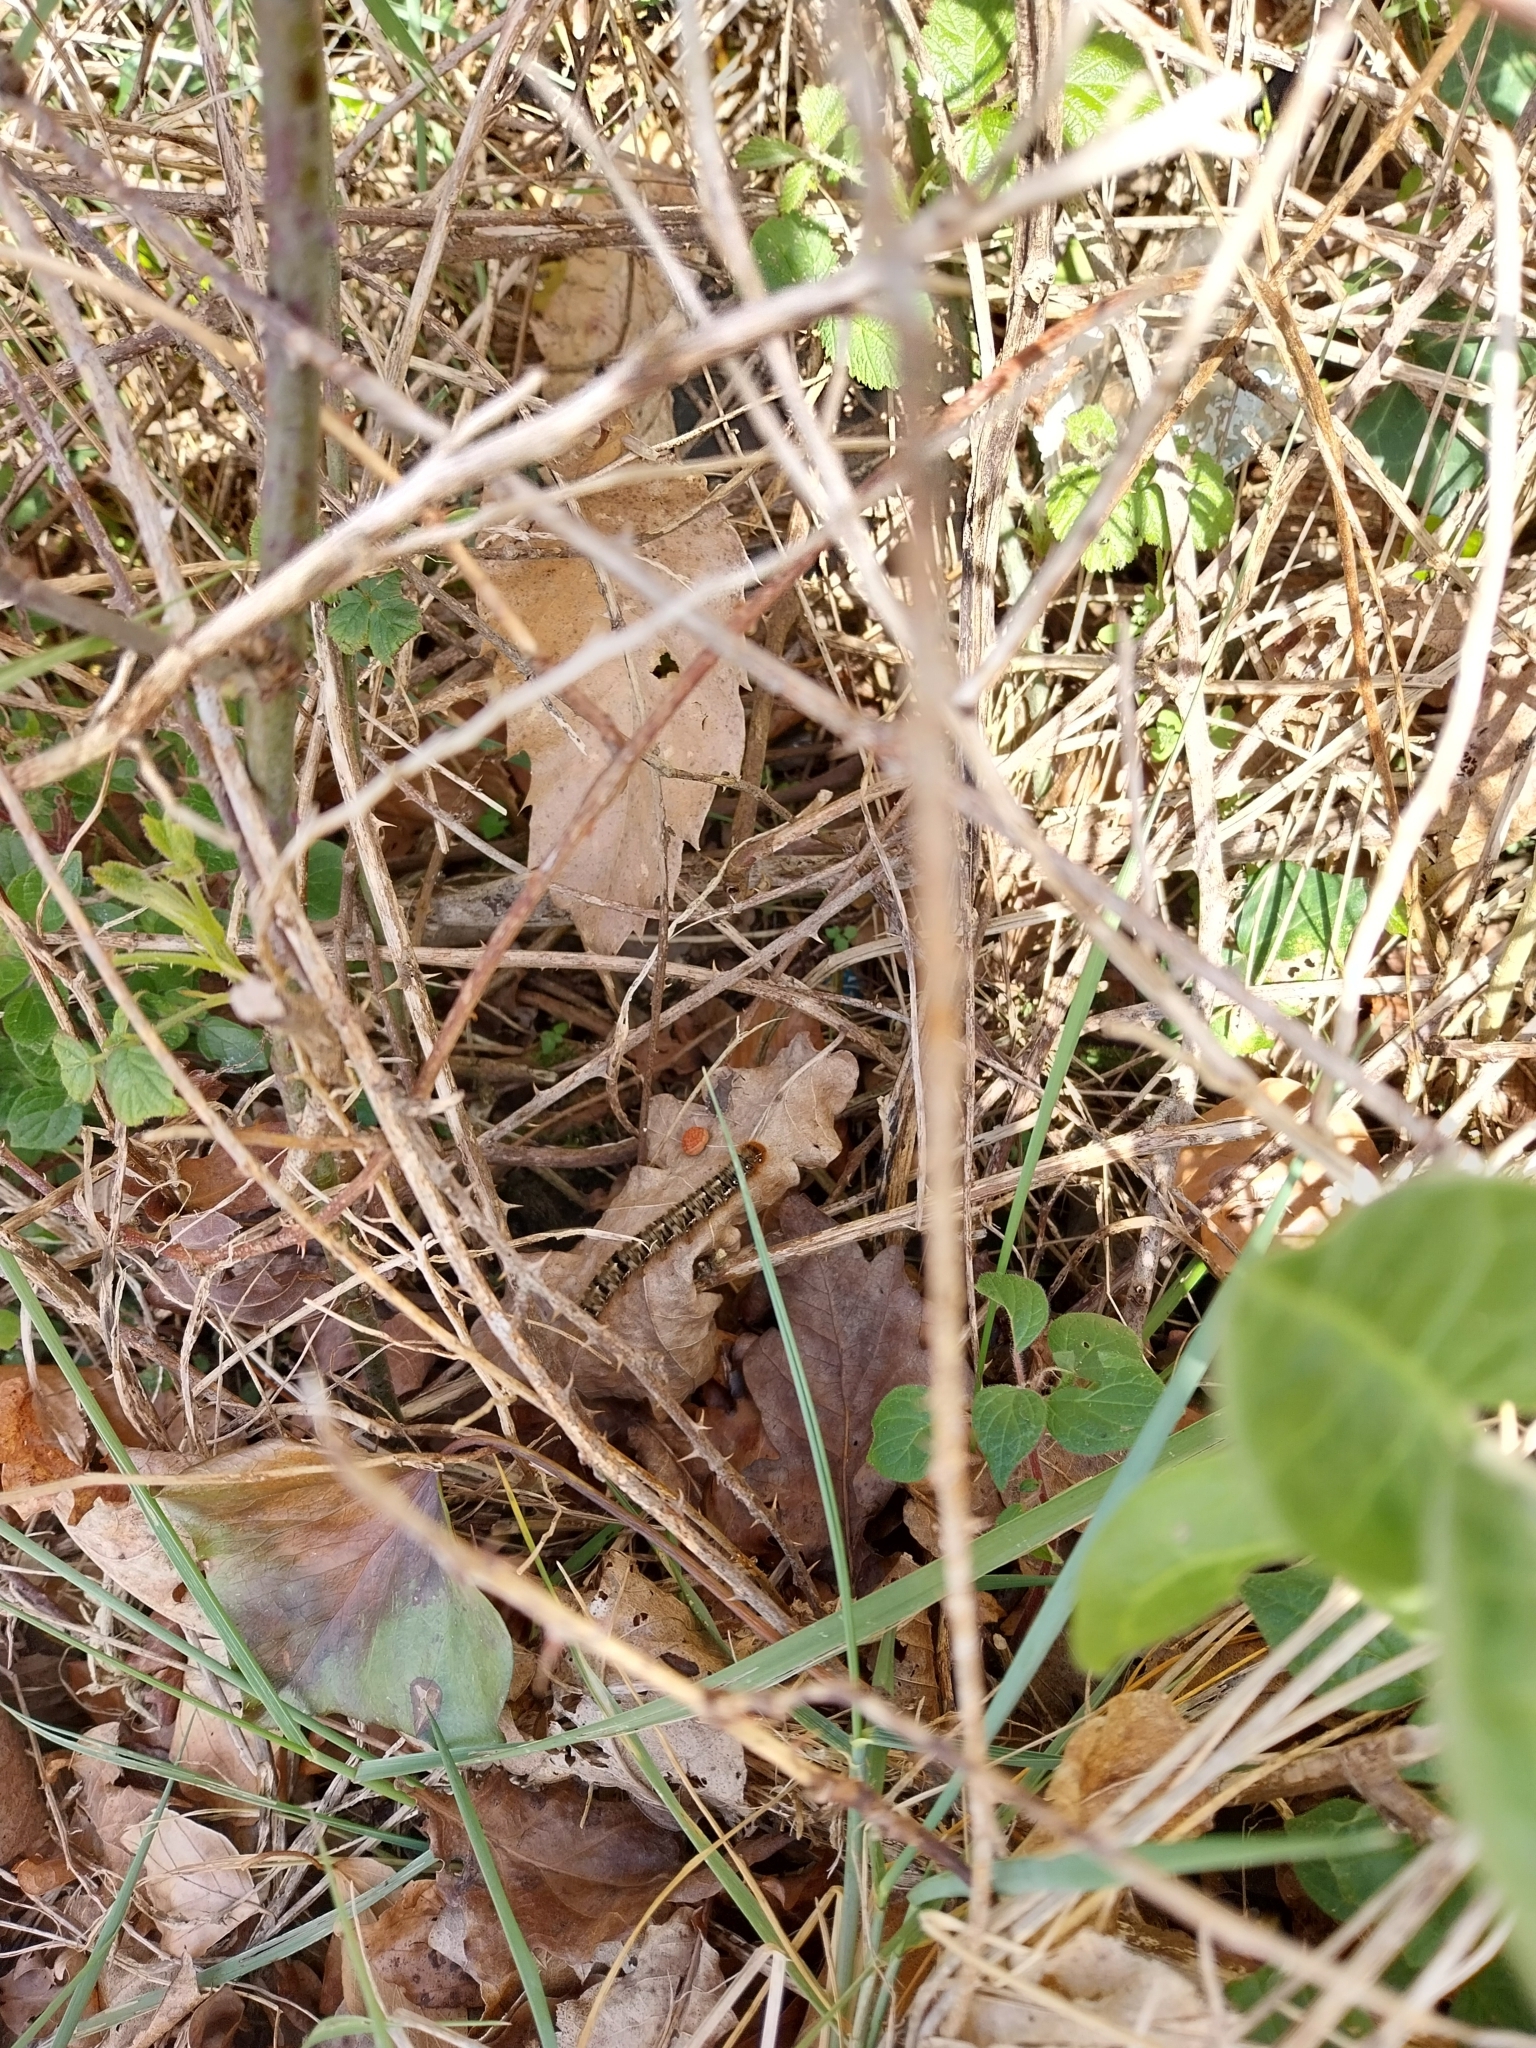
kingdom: Animalia
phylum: Arthropoda
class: Insecta
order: Lepidoptera
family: Lasiocampidae
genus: Lasiocampa
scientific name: Lasiocampa quercus
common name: Oak eggar
